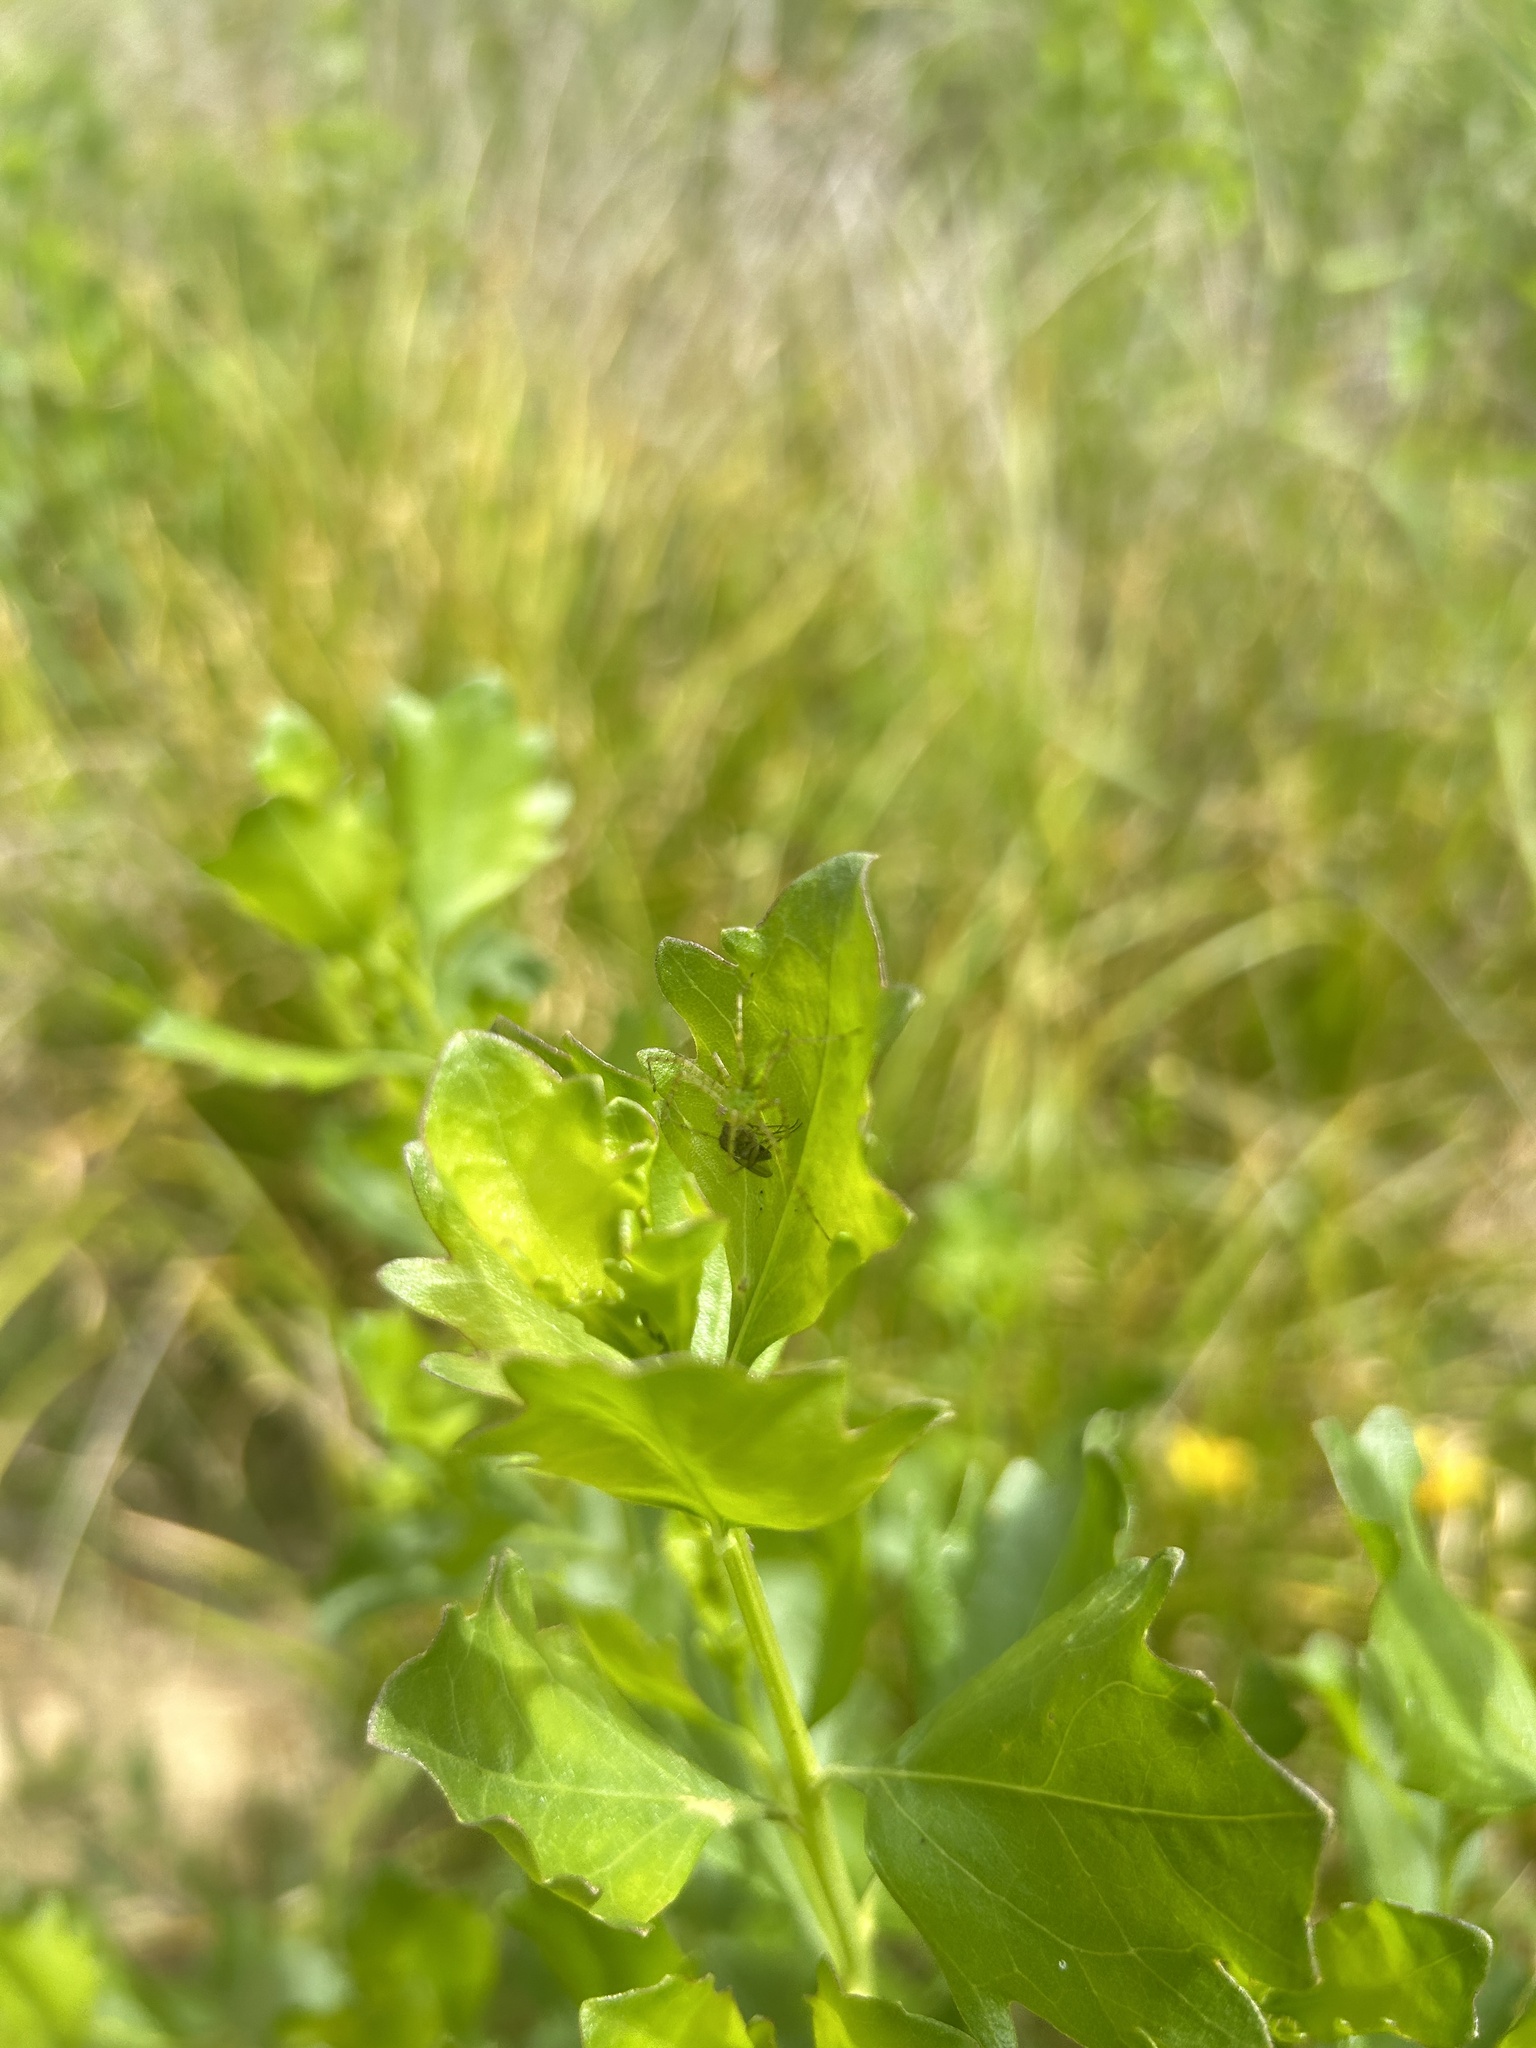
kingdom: Animalia
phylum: Arthropoda
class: Arachnida
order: Araneae
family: Oxyopidae
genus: Peucetia
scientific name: Peucetia viridans
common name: Lynx spiders
